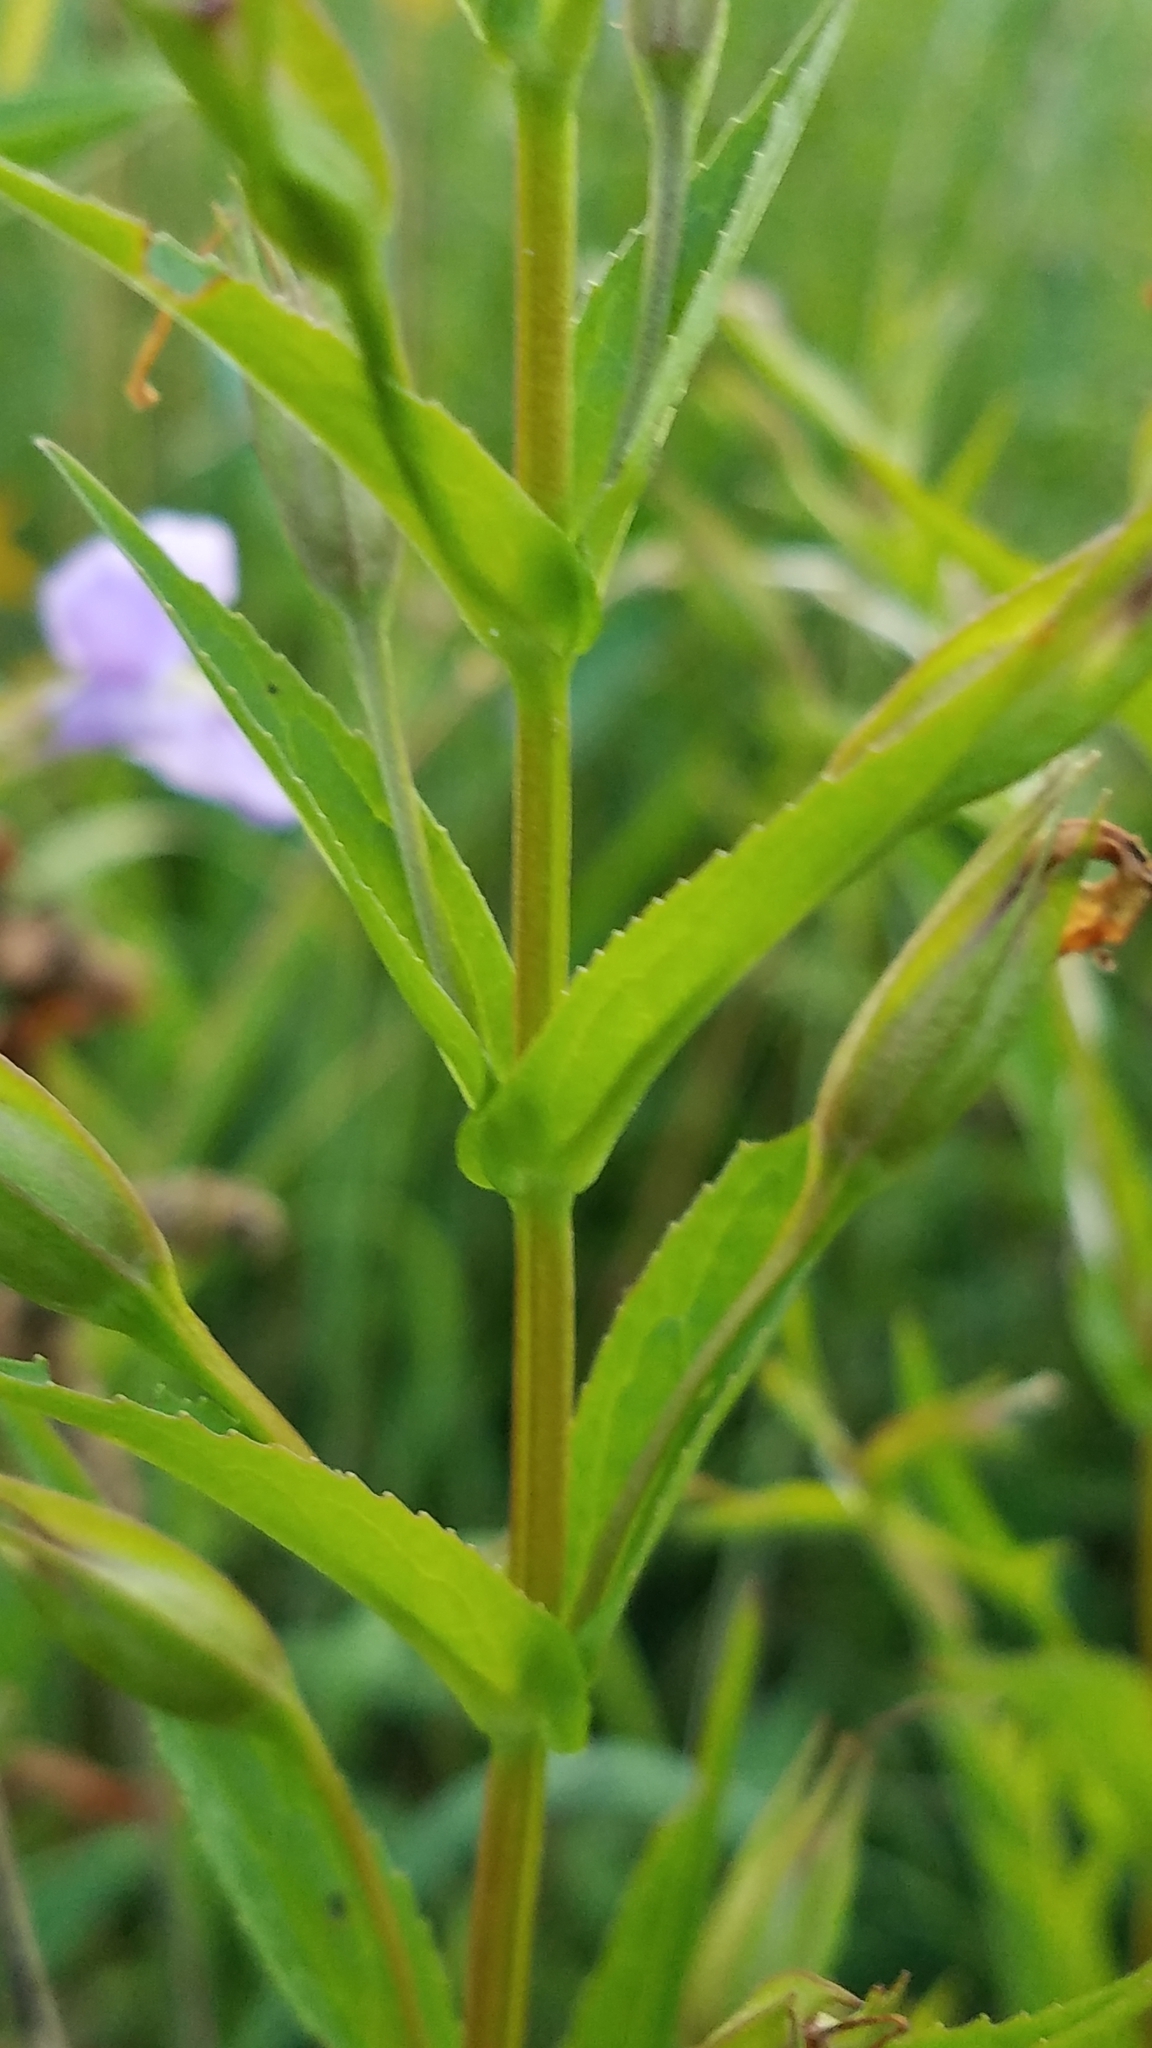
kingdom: Plantae
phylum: Tracheophyta
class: Magnoliopsida
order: Lamiales
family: Phrymaceae
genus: Mimulus
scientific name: Mimulus ringens
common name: Allegheny monkeyflower
